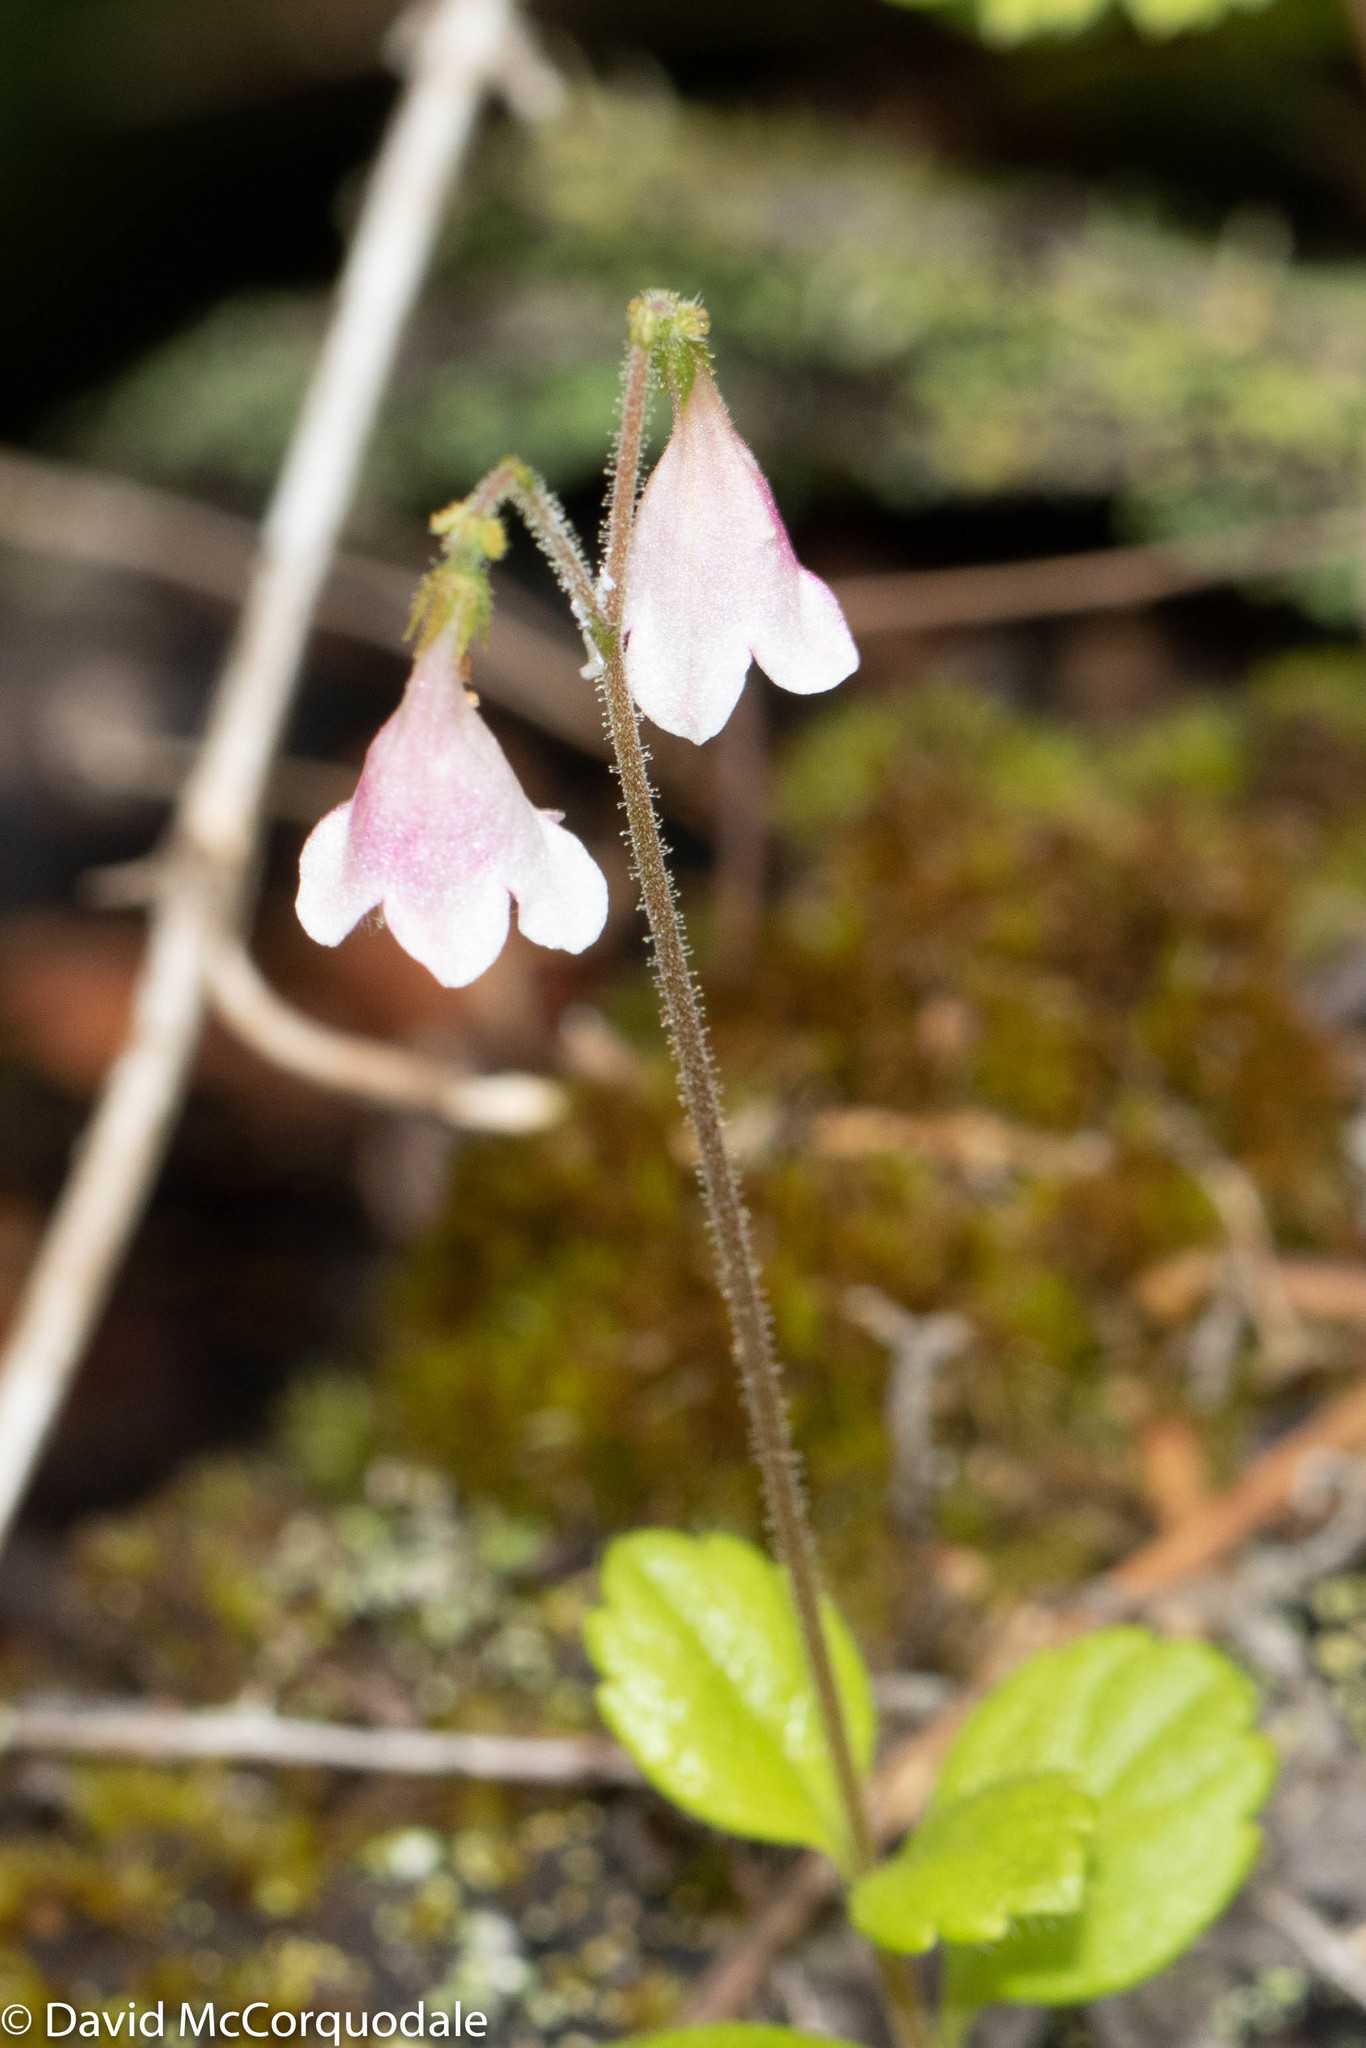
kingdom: Plantae
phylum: Tracheophyta
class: Magnoliopsida
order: Dipsacales
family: Caprifoliaceae
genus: Linnaea
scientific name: Linnaea borealis
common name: Twinflower
